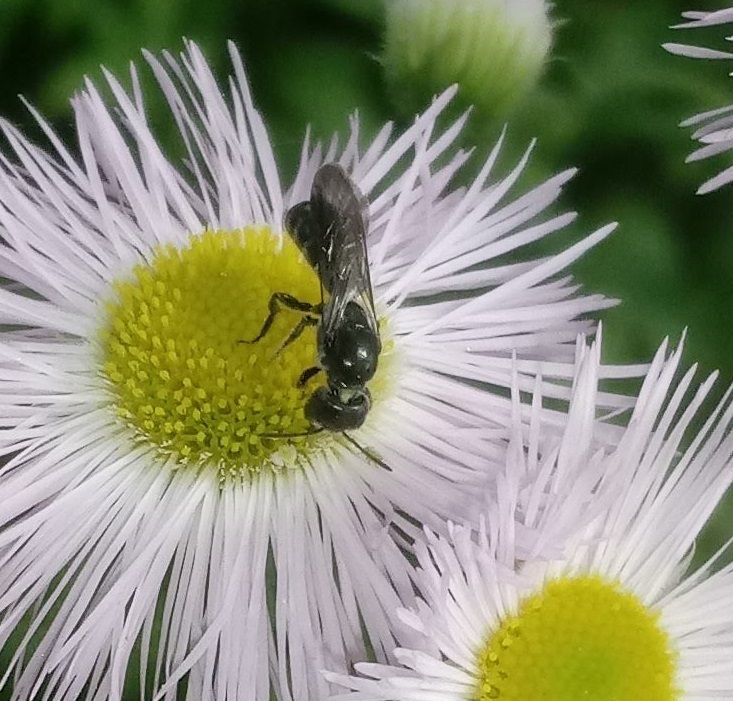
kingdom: Animalia
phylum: Arthropoda
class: Insecta
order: Hymenoptera
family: Megachilidae
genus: Chelostoma
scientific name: Chelostoma philadelphi
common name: Mock-orange scissor bee
